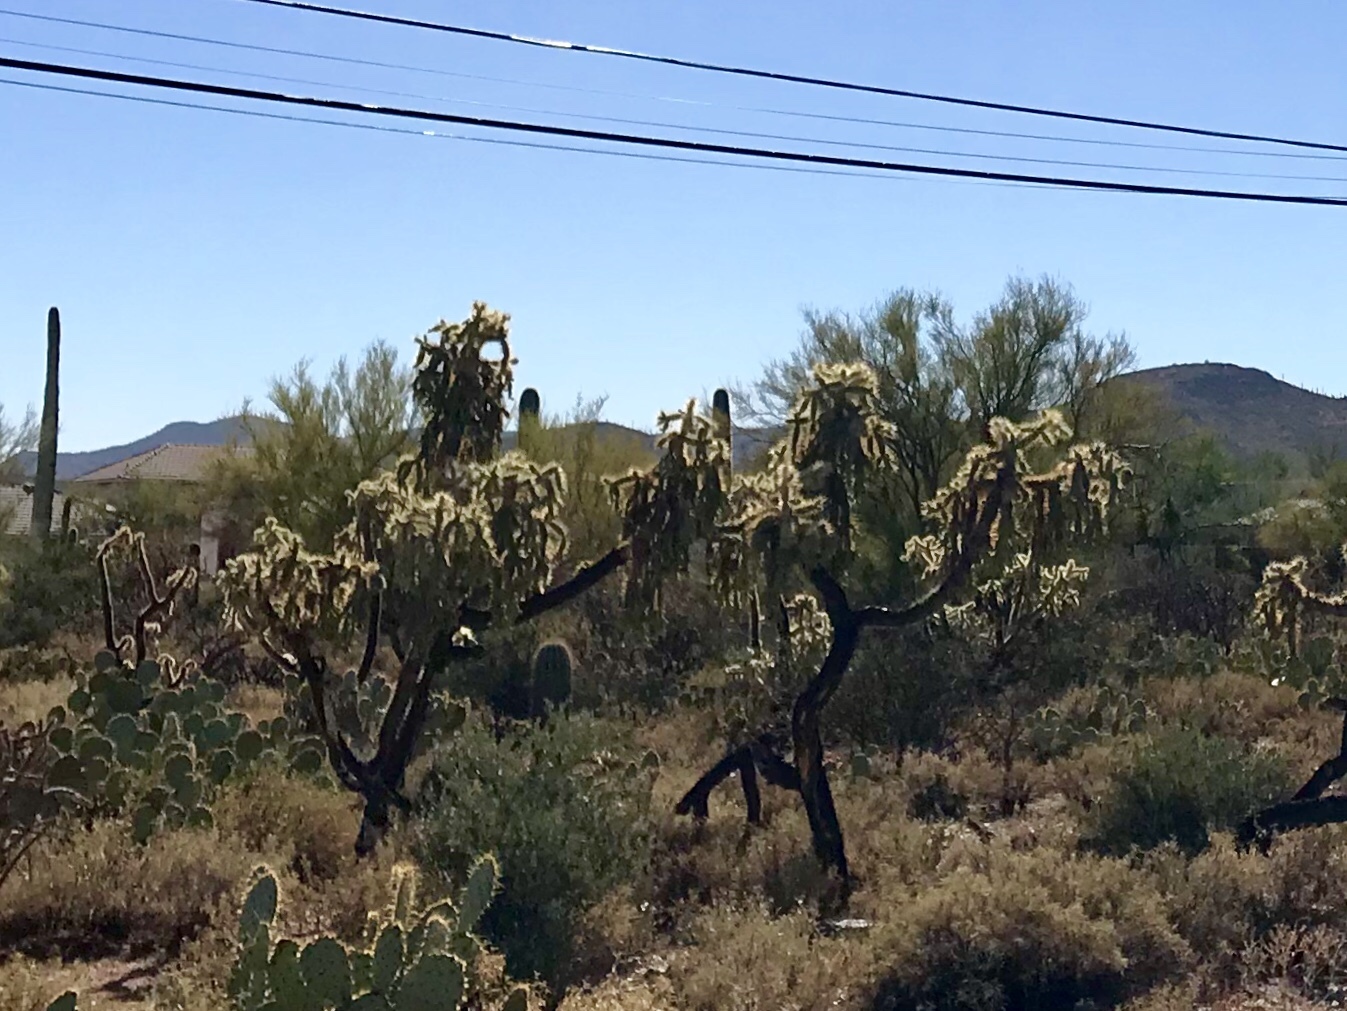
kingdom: Plantae
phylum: Tracheophyta
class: Magnoliopsida
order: Caryophyllales
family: Cactaceae
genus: Cylindropuntia
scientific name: Cylindropuntia fulgida
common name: Jumping cholla
